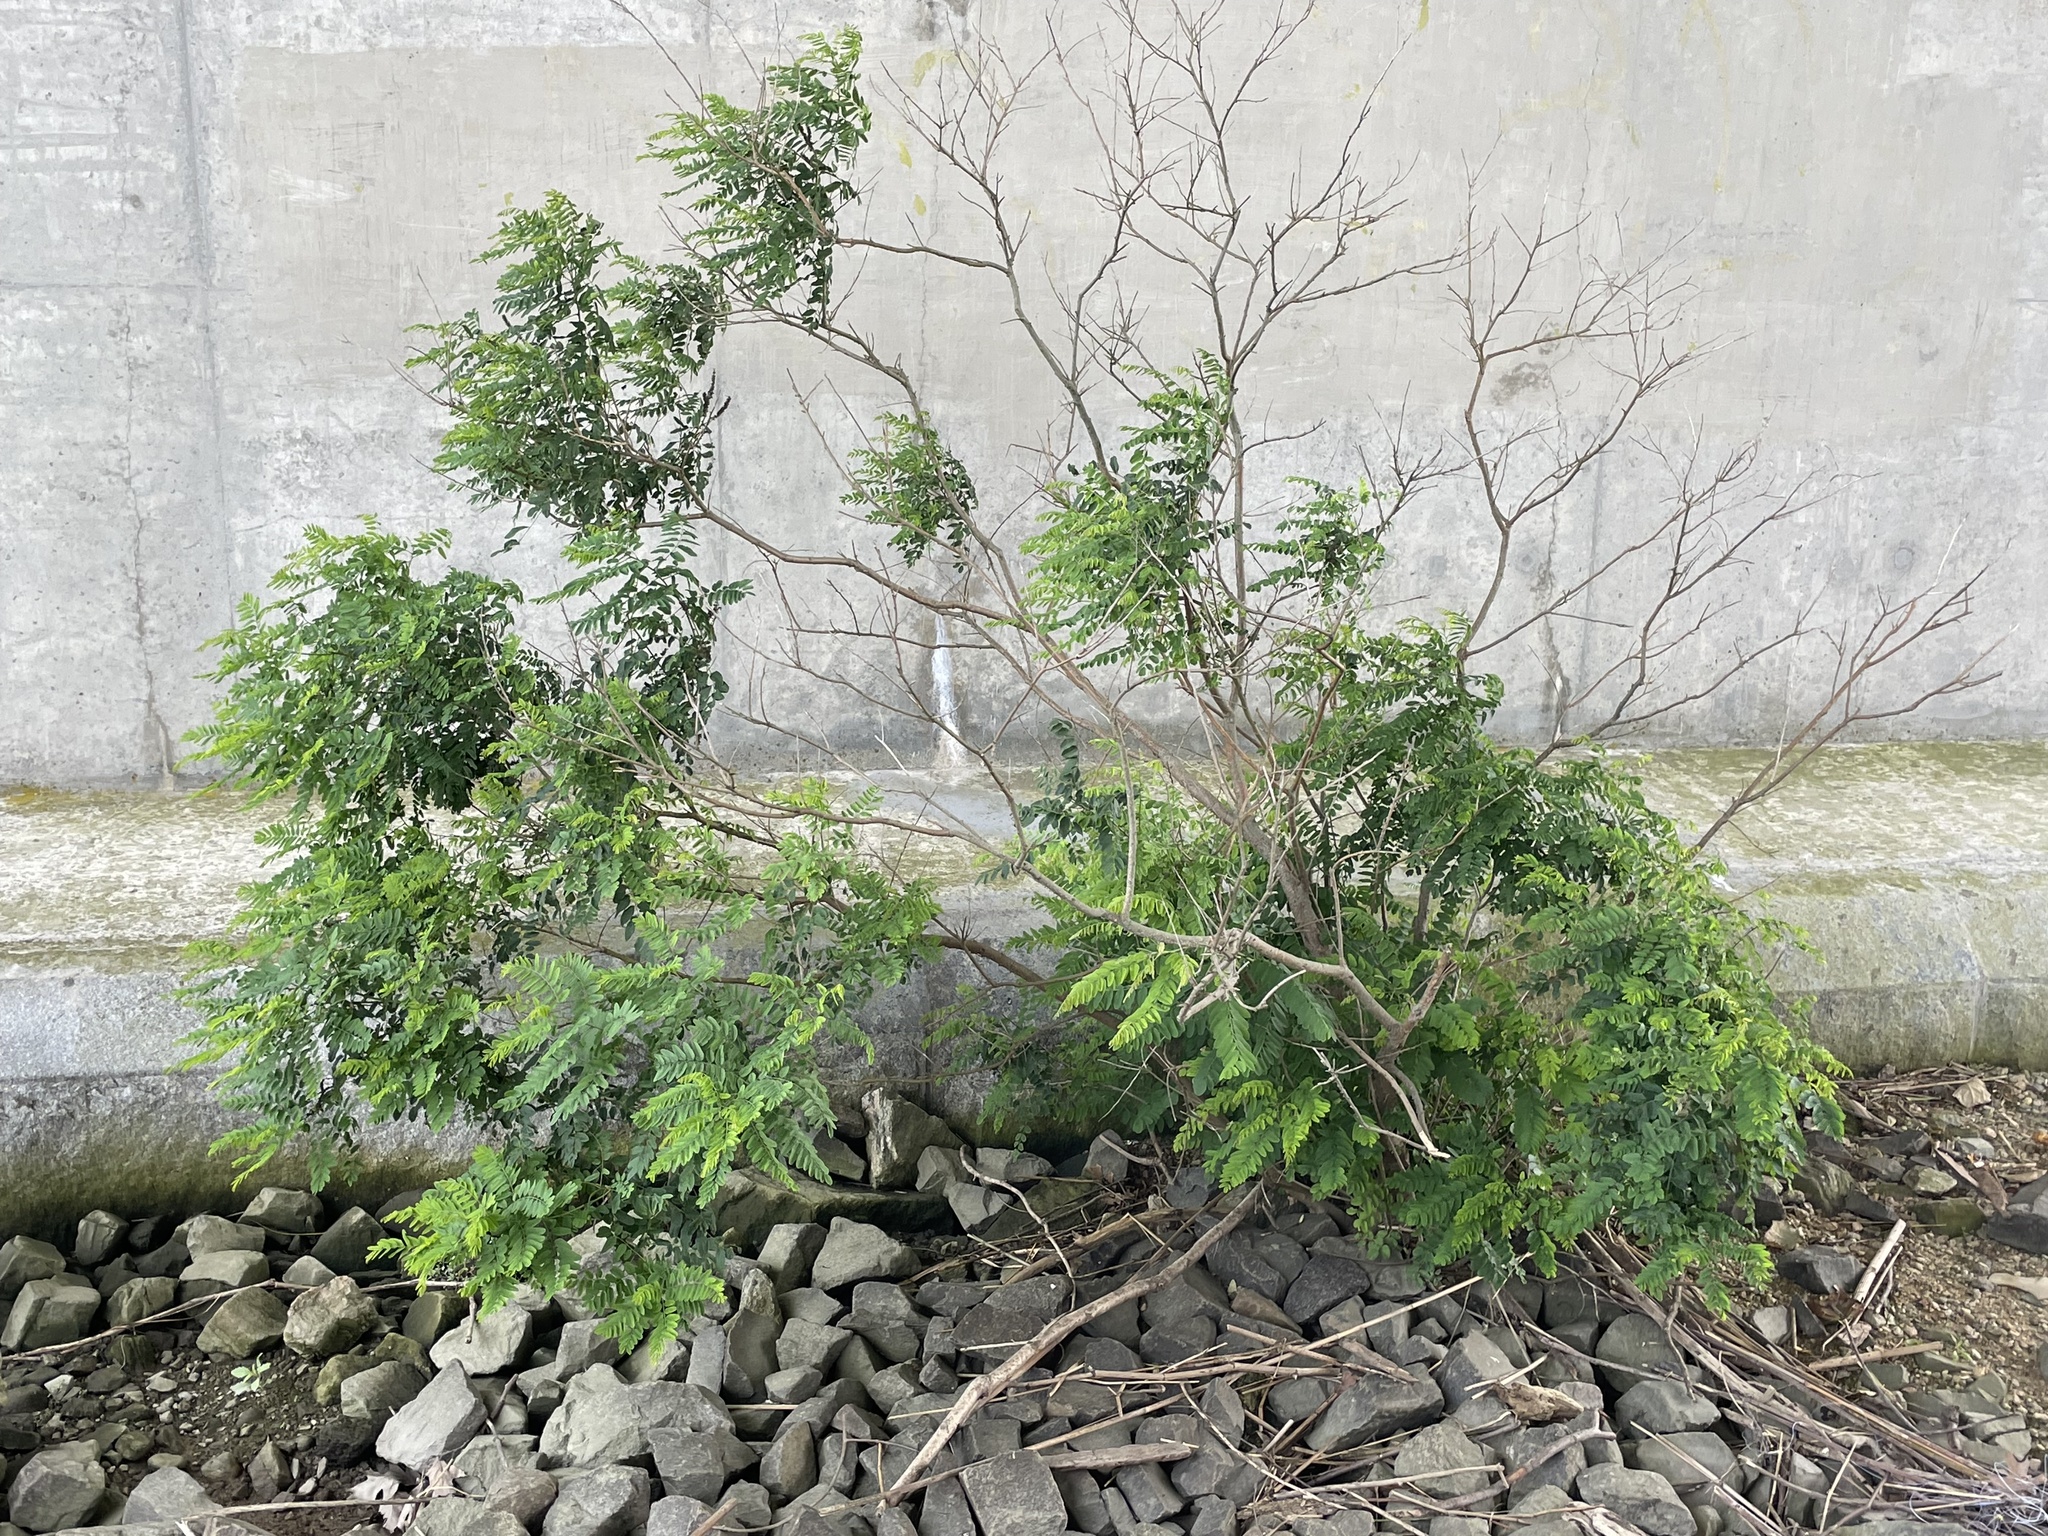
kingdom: Plantae
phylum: Tracheophyta
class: Magnoliopsida
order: Fabales
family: Fabaceae
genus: Amorpha
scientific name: Amorpha fruticosa
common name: False indigo
